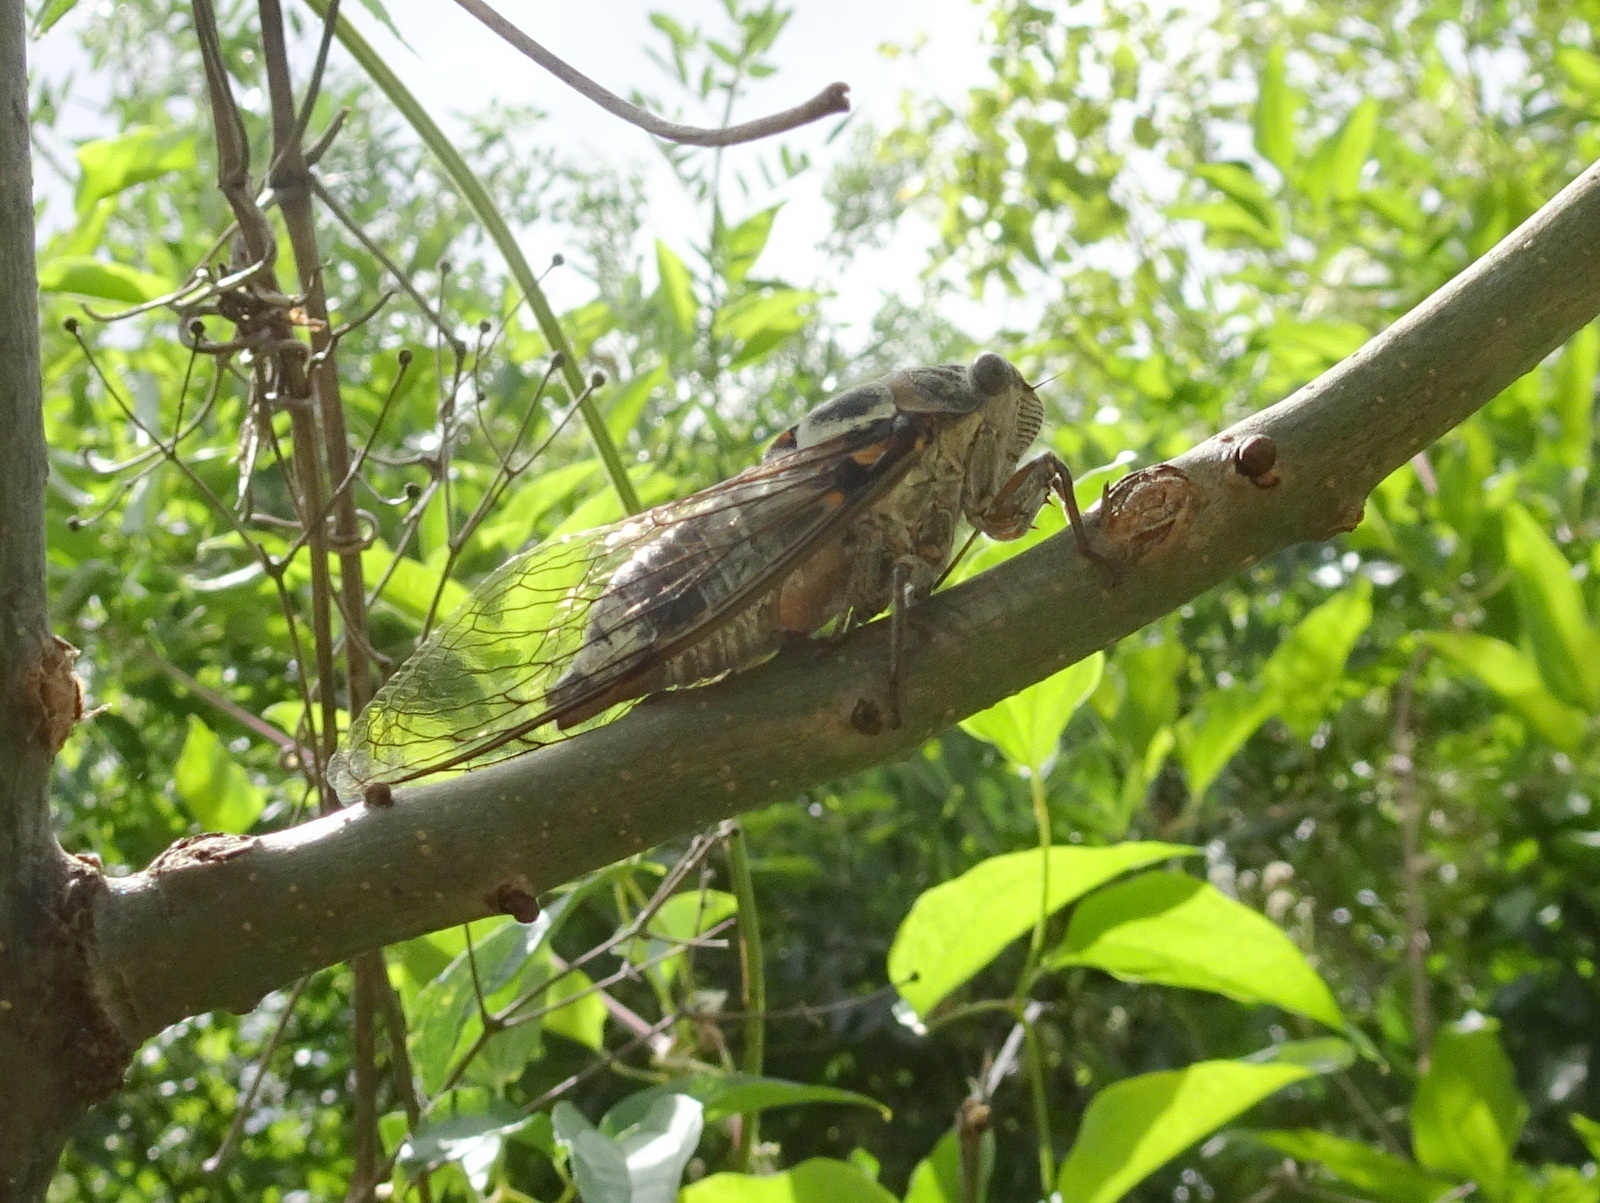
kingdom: Animalia
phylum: Arthropoda
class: Insecta
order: Hemiptera
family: Cicadidae
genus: Lyristes
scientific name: Lyristes plebejus
